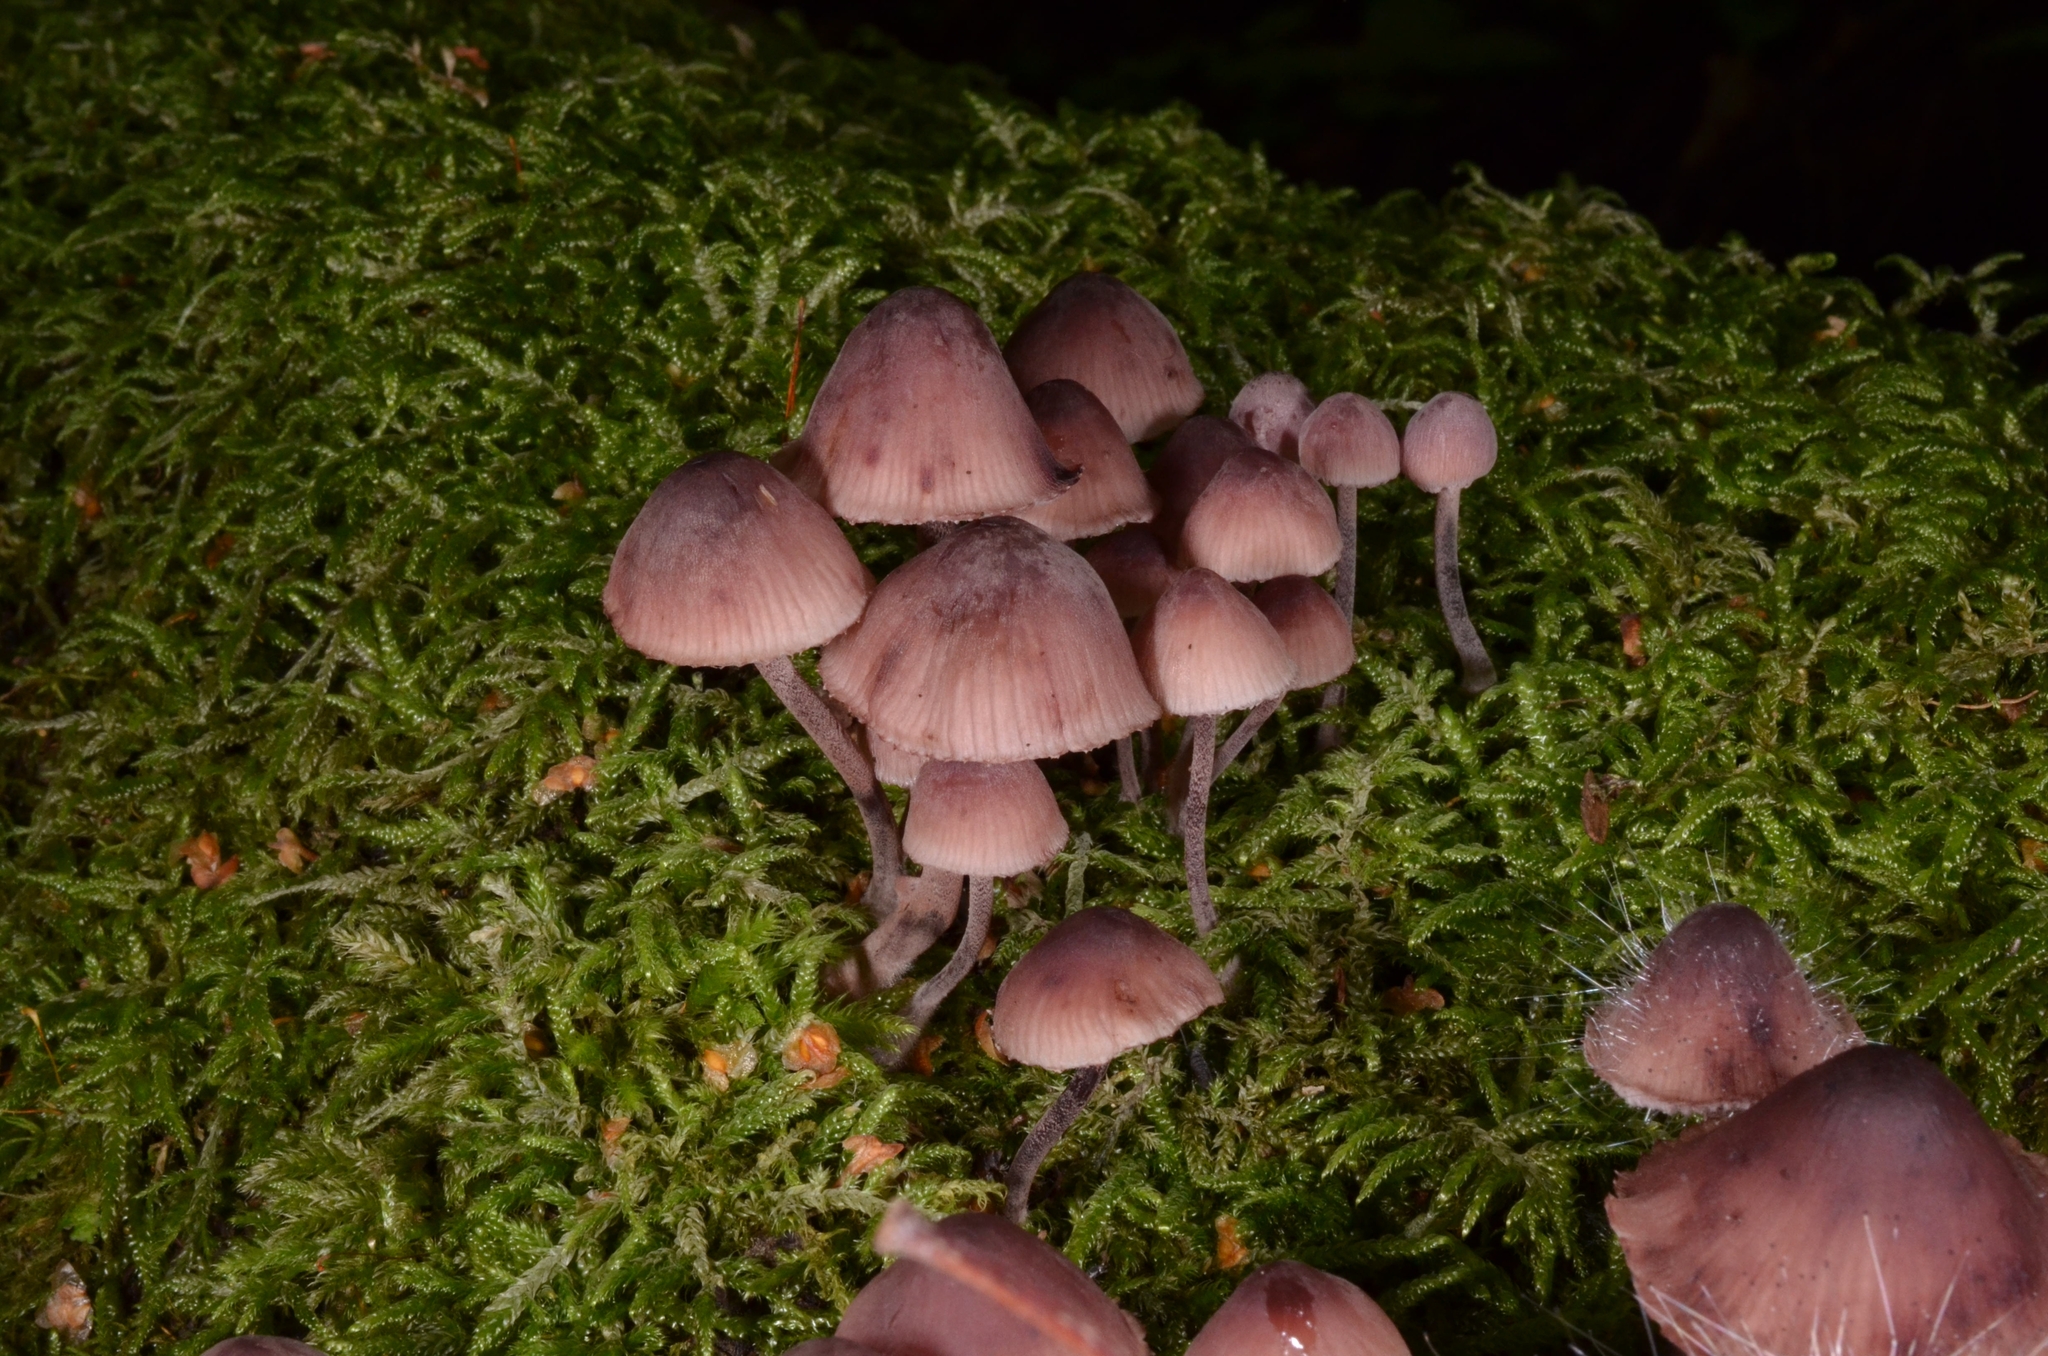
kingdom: Fungi
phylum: Basidiomycota
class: Agaricomycetes
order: Agaricales
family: Mycenaceae
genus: Mycena
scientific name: Mycena haematopus
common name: Burgundydrop bonnet
